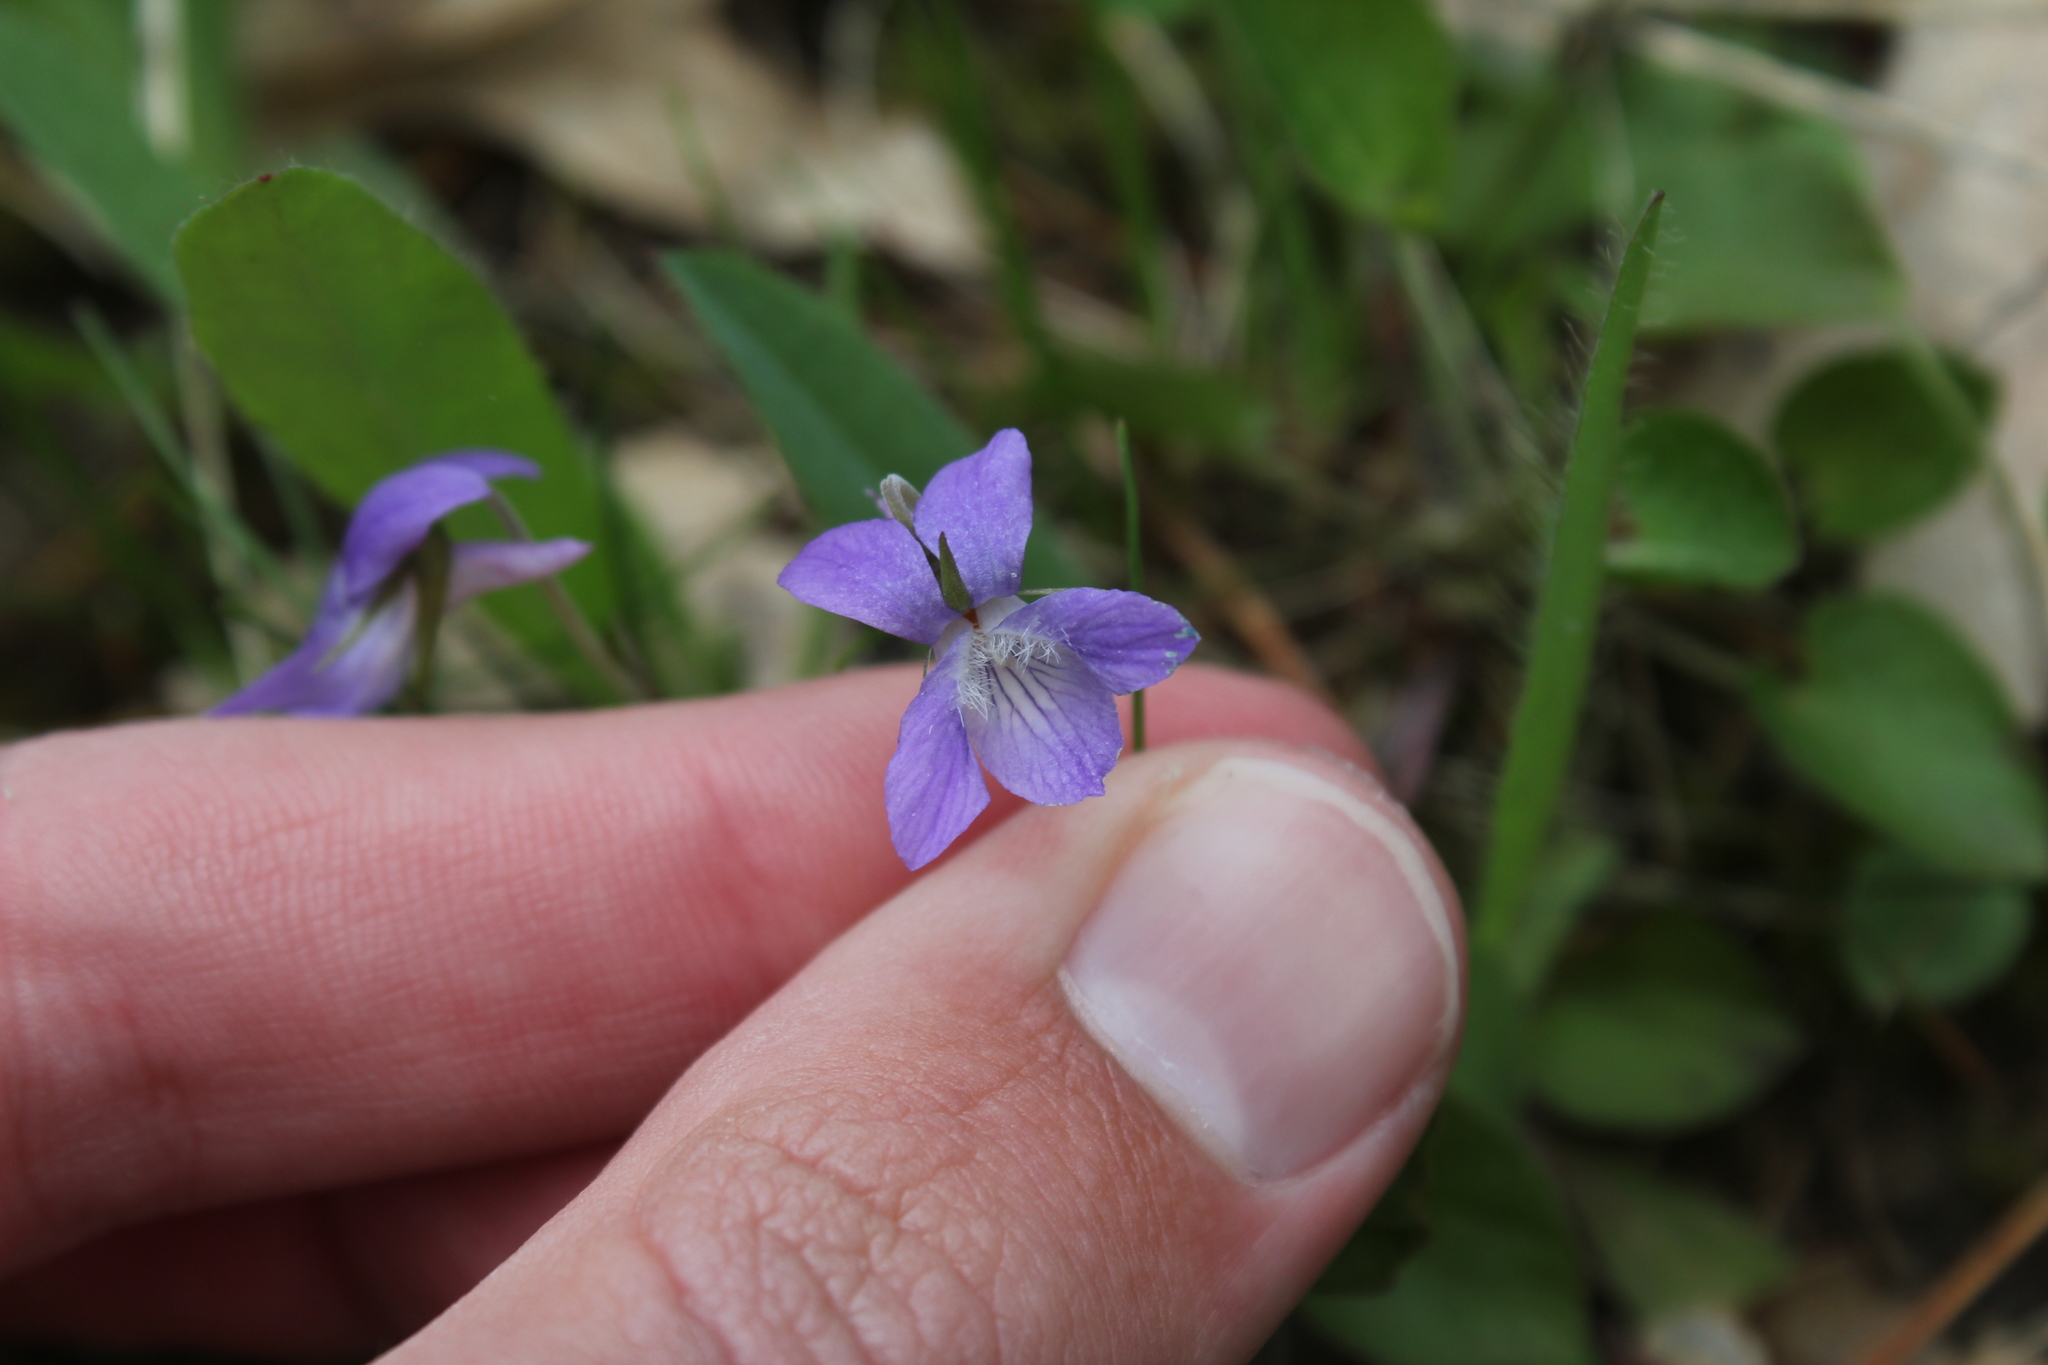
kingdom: Plantae
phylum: Tracheophyta
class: Magnoliopsida
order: Malpighiales
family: Violaceae
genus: Viola
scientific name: Viola adunca
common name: Sand violet
